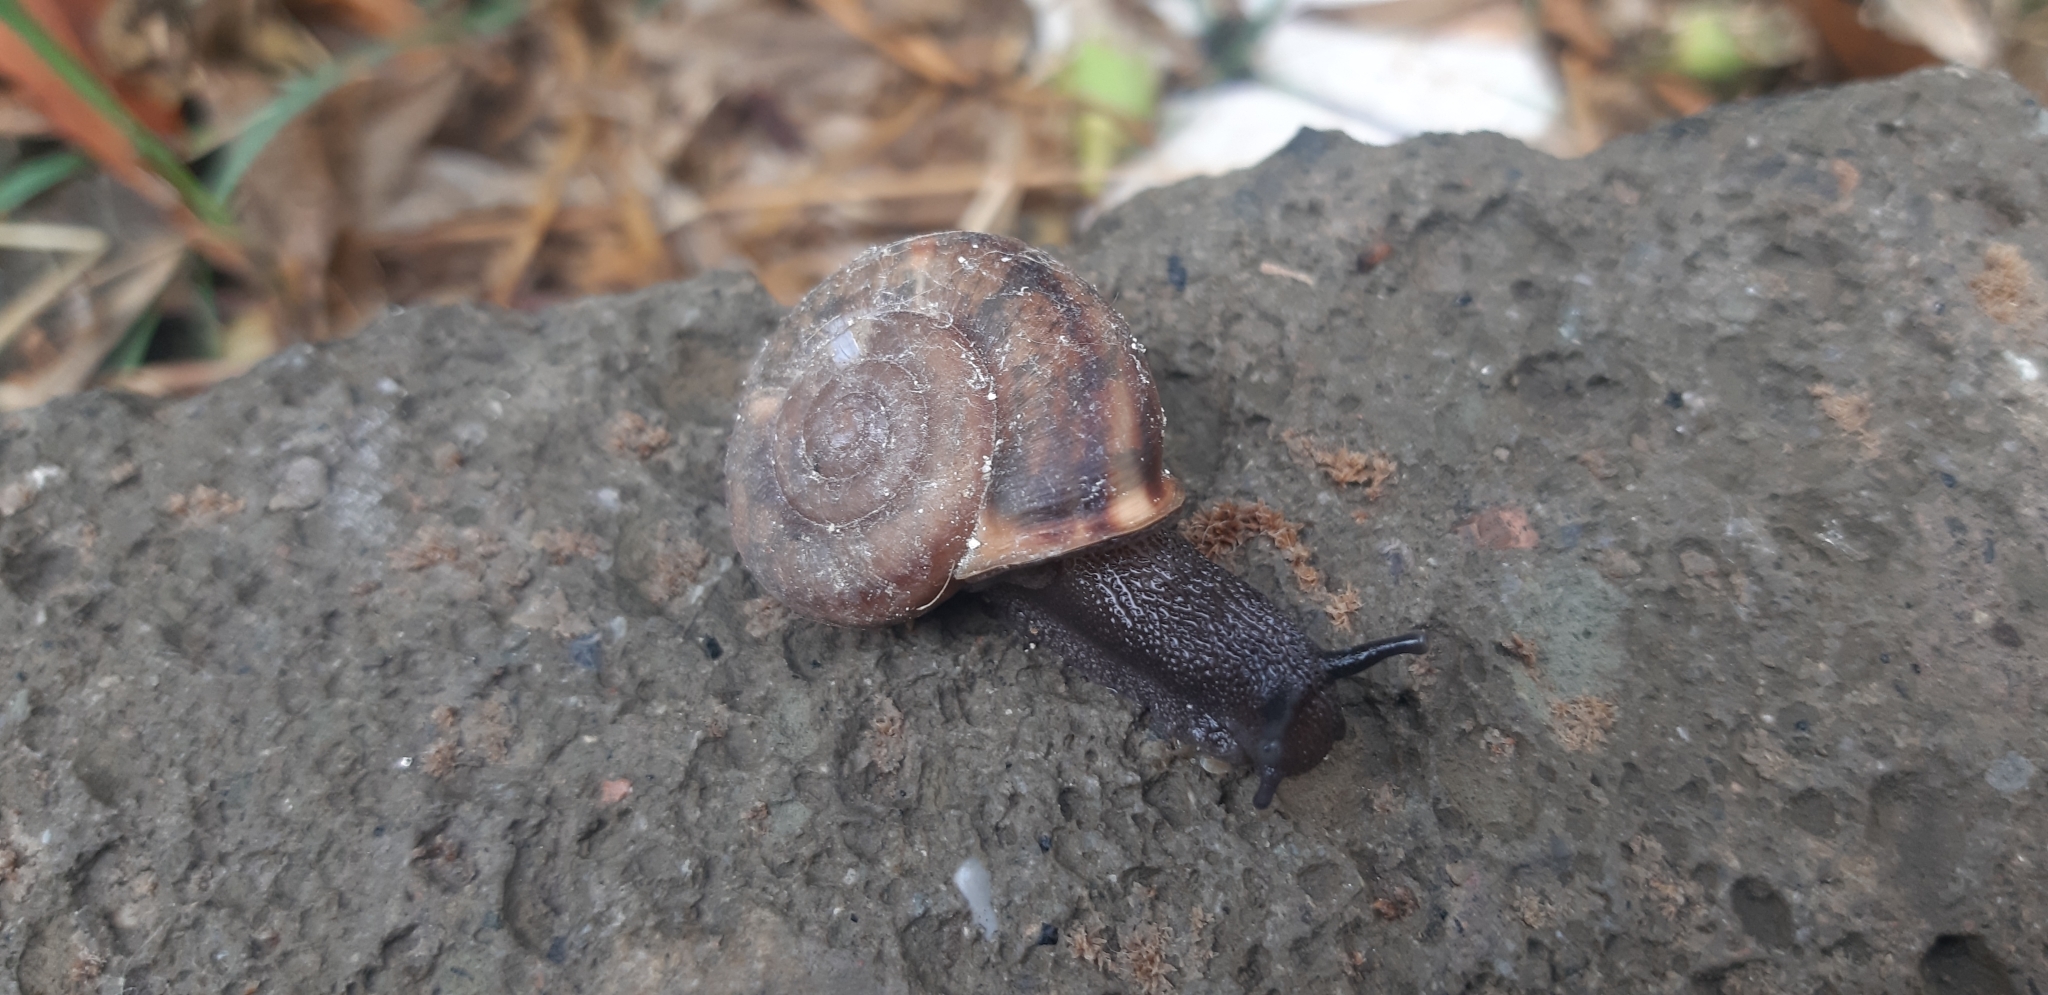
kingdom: Animalia
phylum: Mollusca
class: Gastropoda
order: Stylommatophora
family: Helicidae
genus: Campylaea
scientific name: Campylaea planospira
